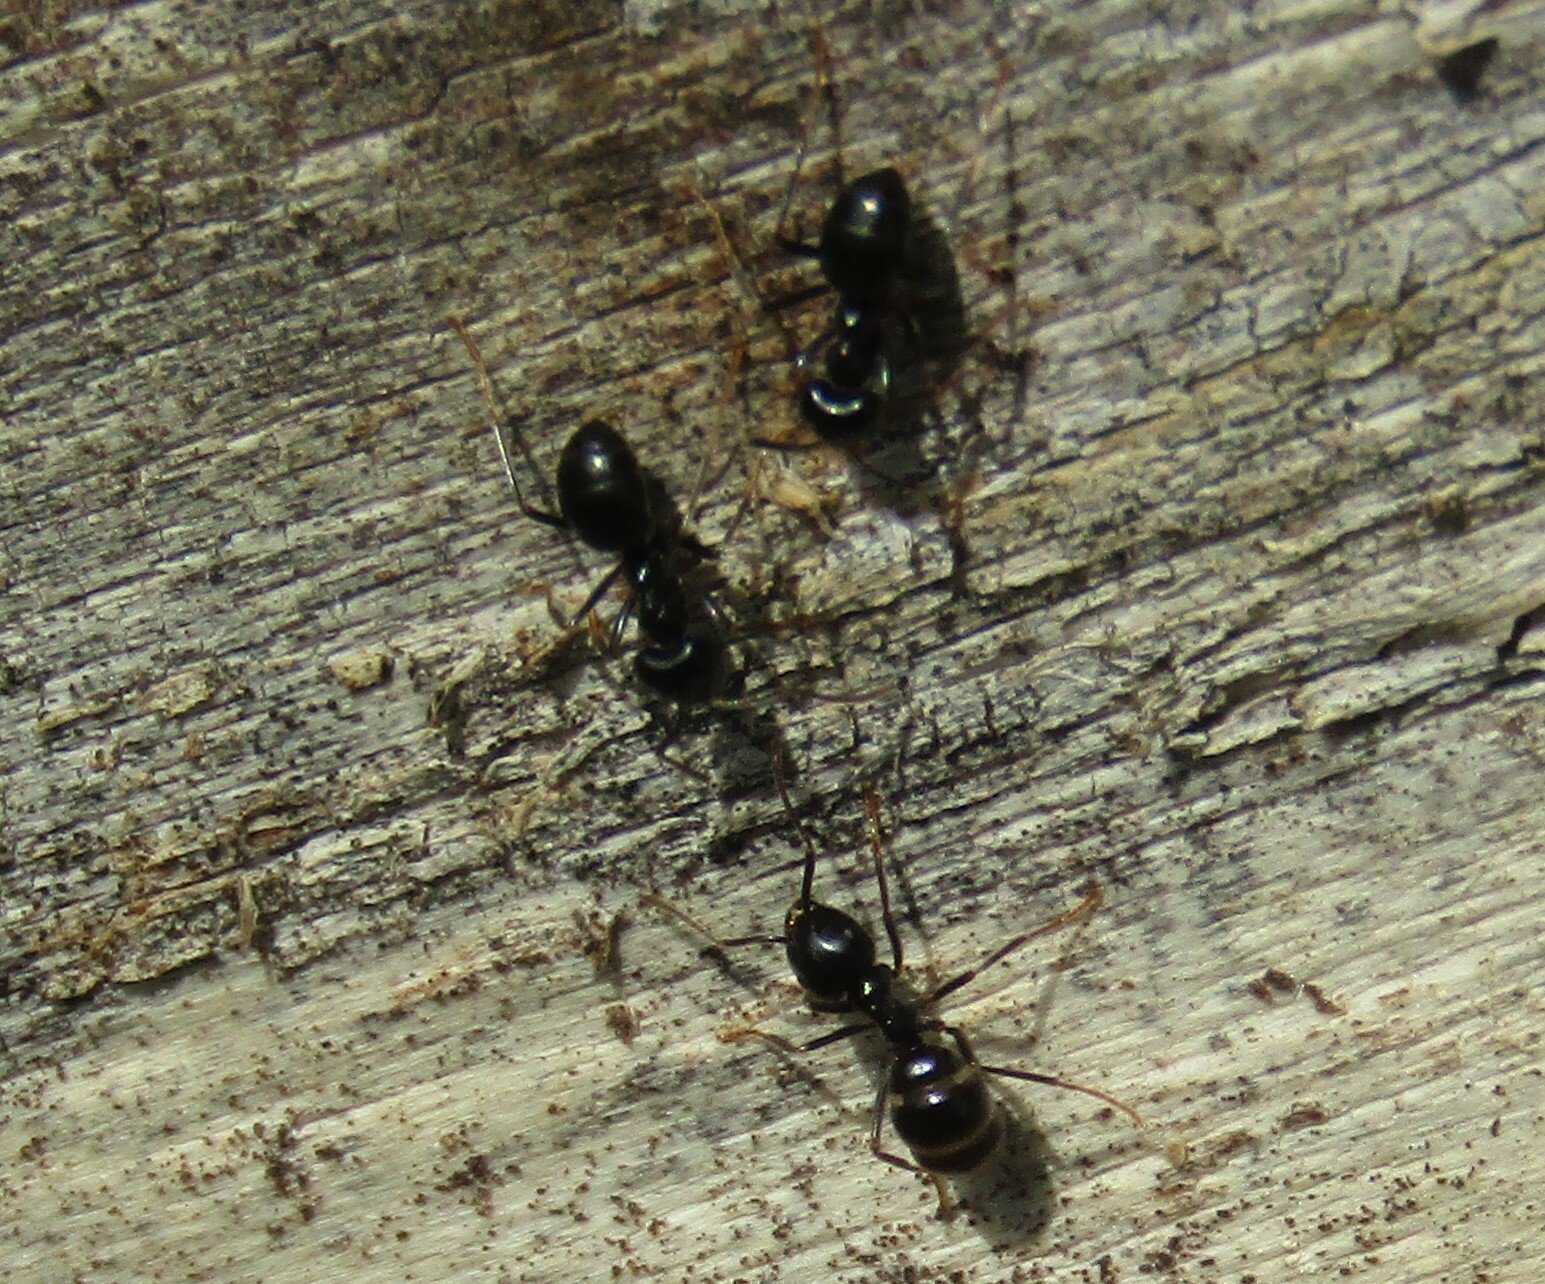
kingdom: Animalia
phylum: Arthropoda
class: Insecta
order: Hymenoptera
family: Formicidae
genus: Lasius
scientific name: Lasius fuliginosus
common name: Jet ant
